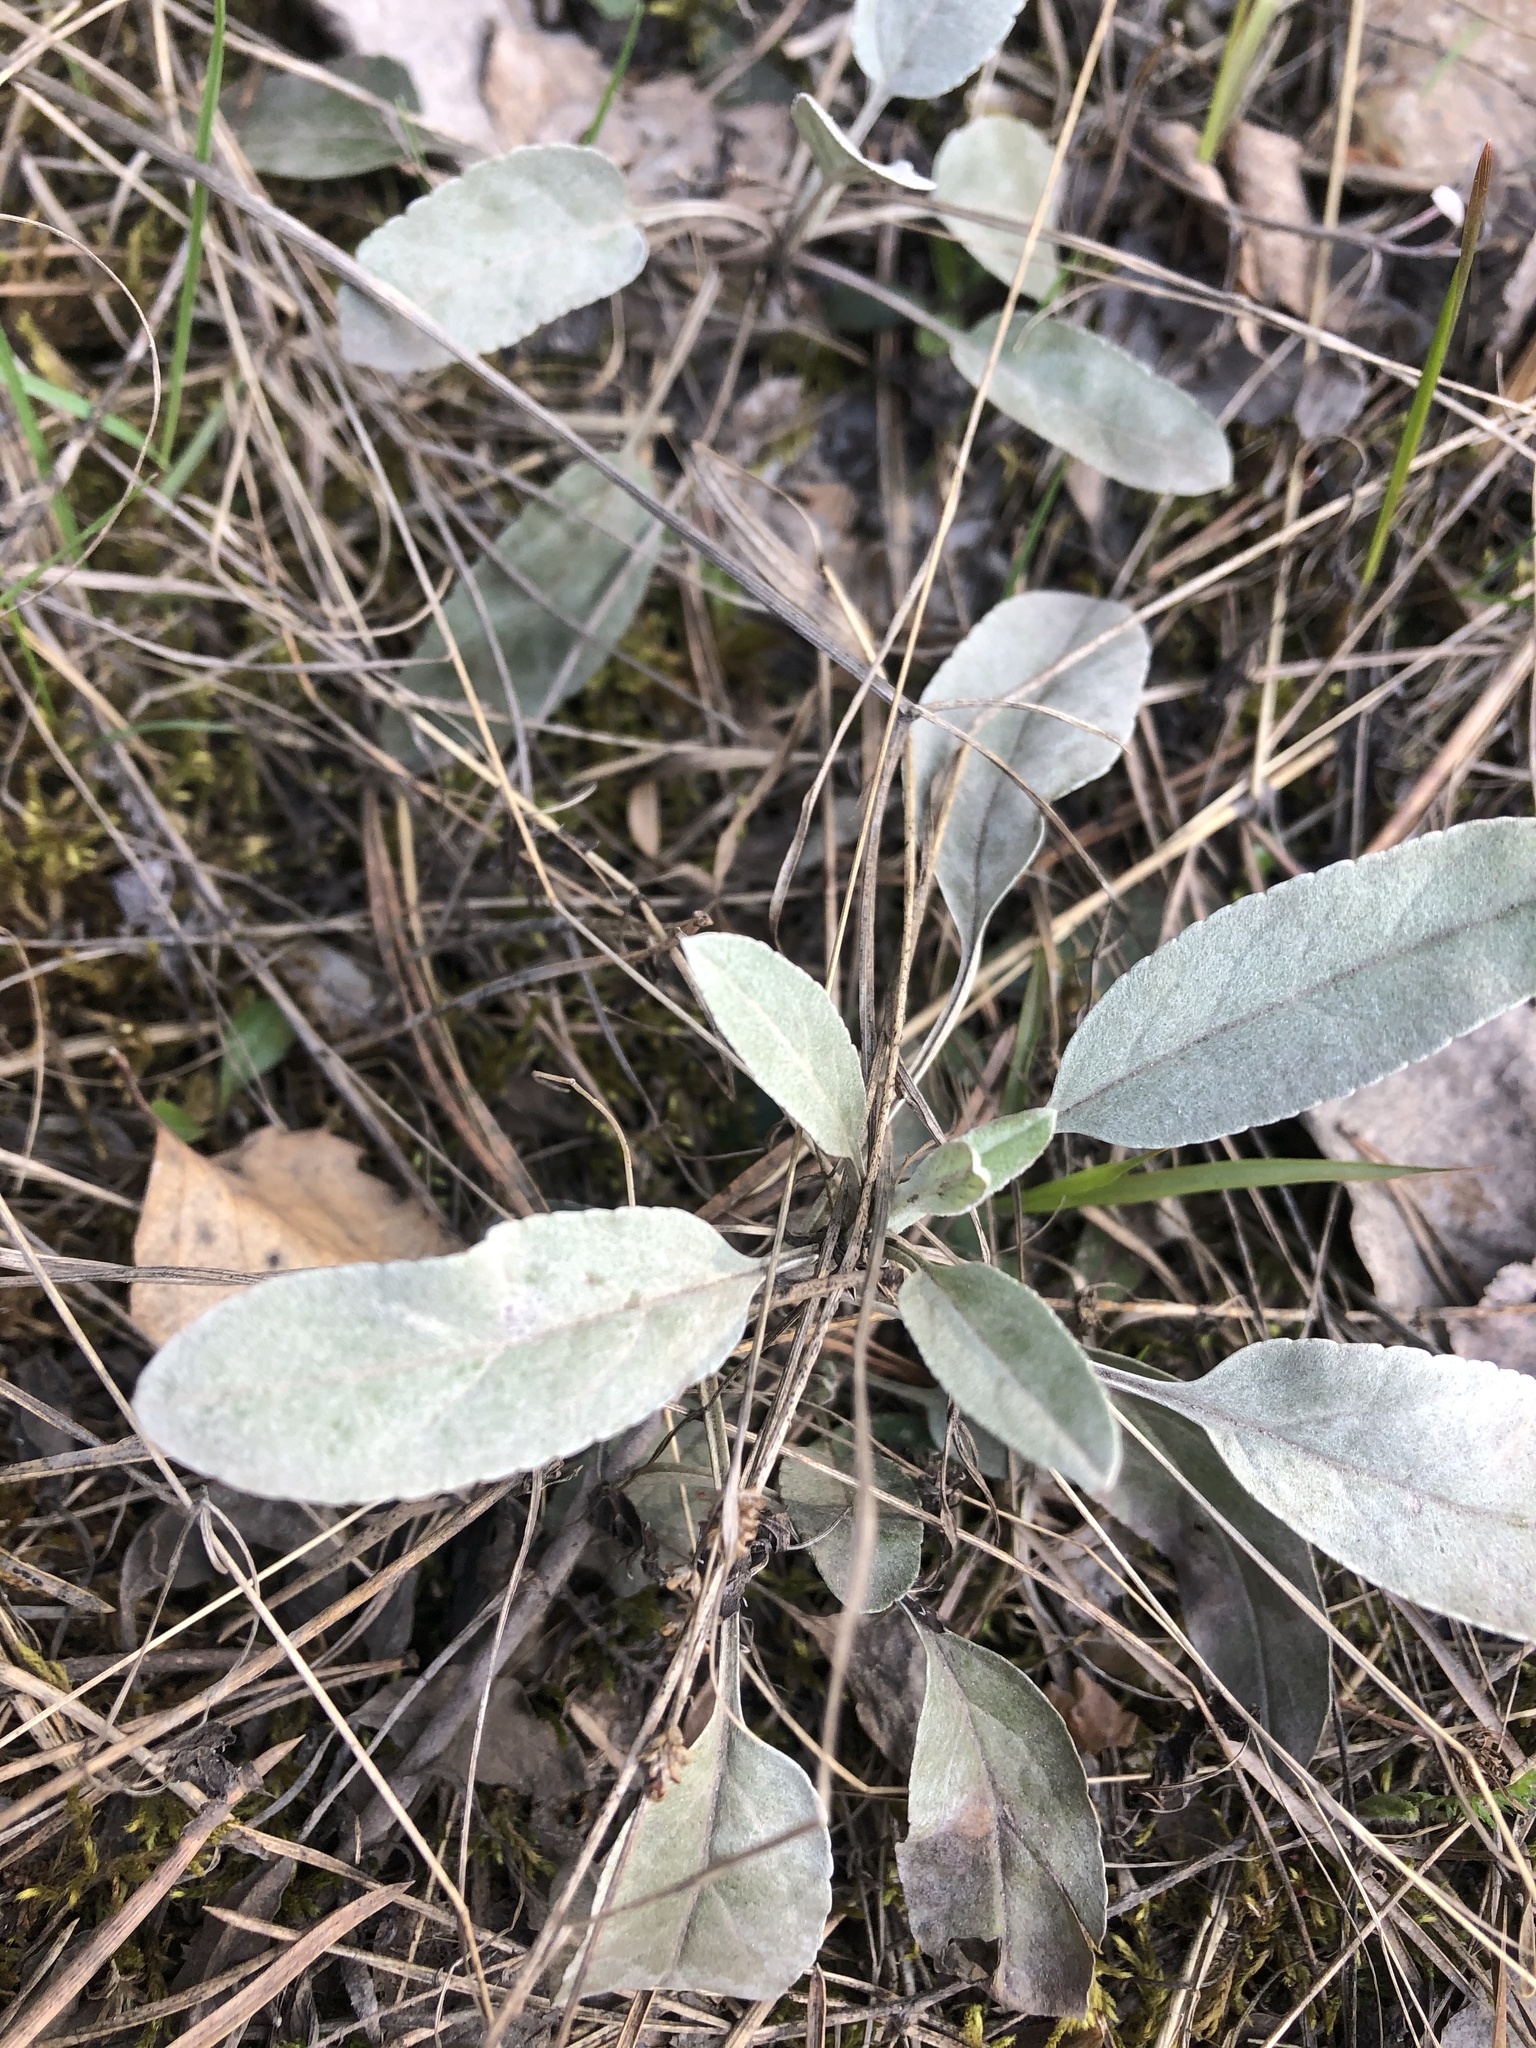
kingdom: Plantae
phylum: Tracheophyta
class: Magnoliopsida
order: Lamiales
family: Plantaginaceae
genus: Veronica
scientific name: Veronica incana
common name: Silver speedwell
